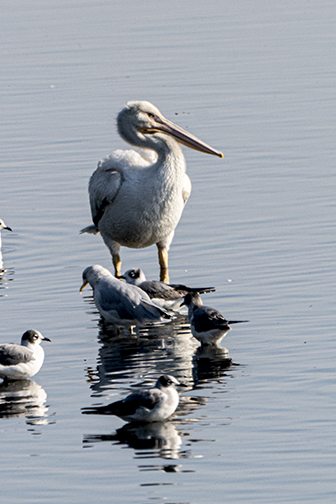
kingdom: Animalia
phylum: Chordata
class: Aves
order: Pelecaniformes
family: Pelecanidae
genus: Pelecanus
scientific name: Pelecanus erythrorhynchos
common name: American white pelican
